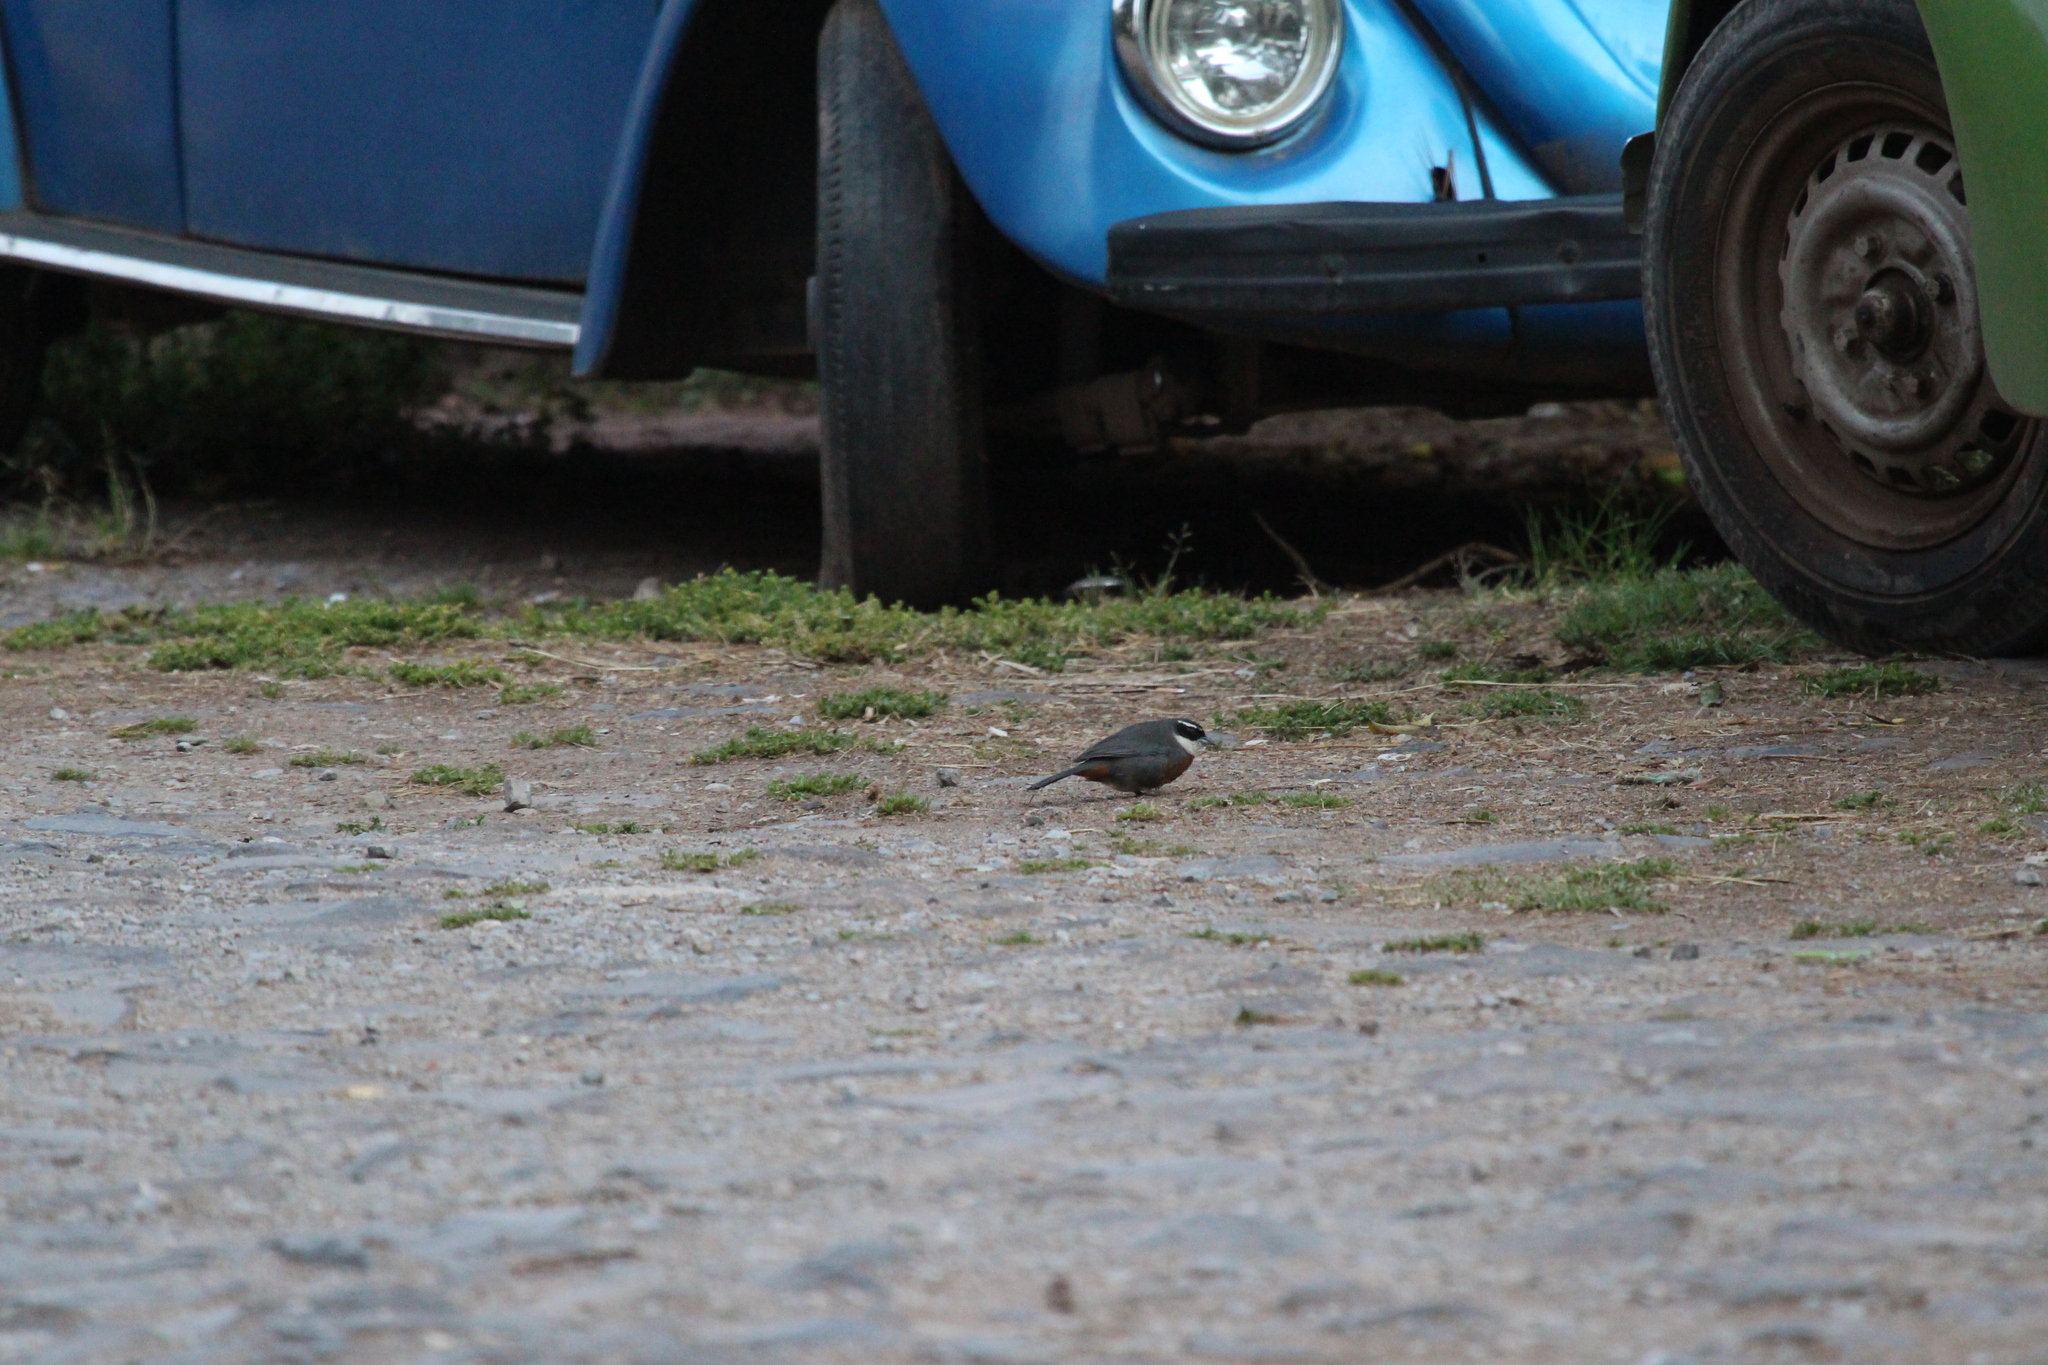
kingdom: Animalia
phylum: Chordata
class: Aves
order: Passeriformes
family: Thraupidae
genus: Poospizopsis
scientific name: Poospizopsis caesar
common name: Chestnut-breasted mountain-finch
